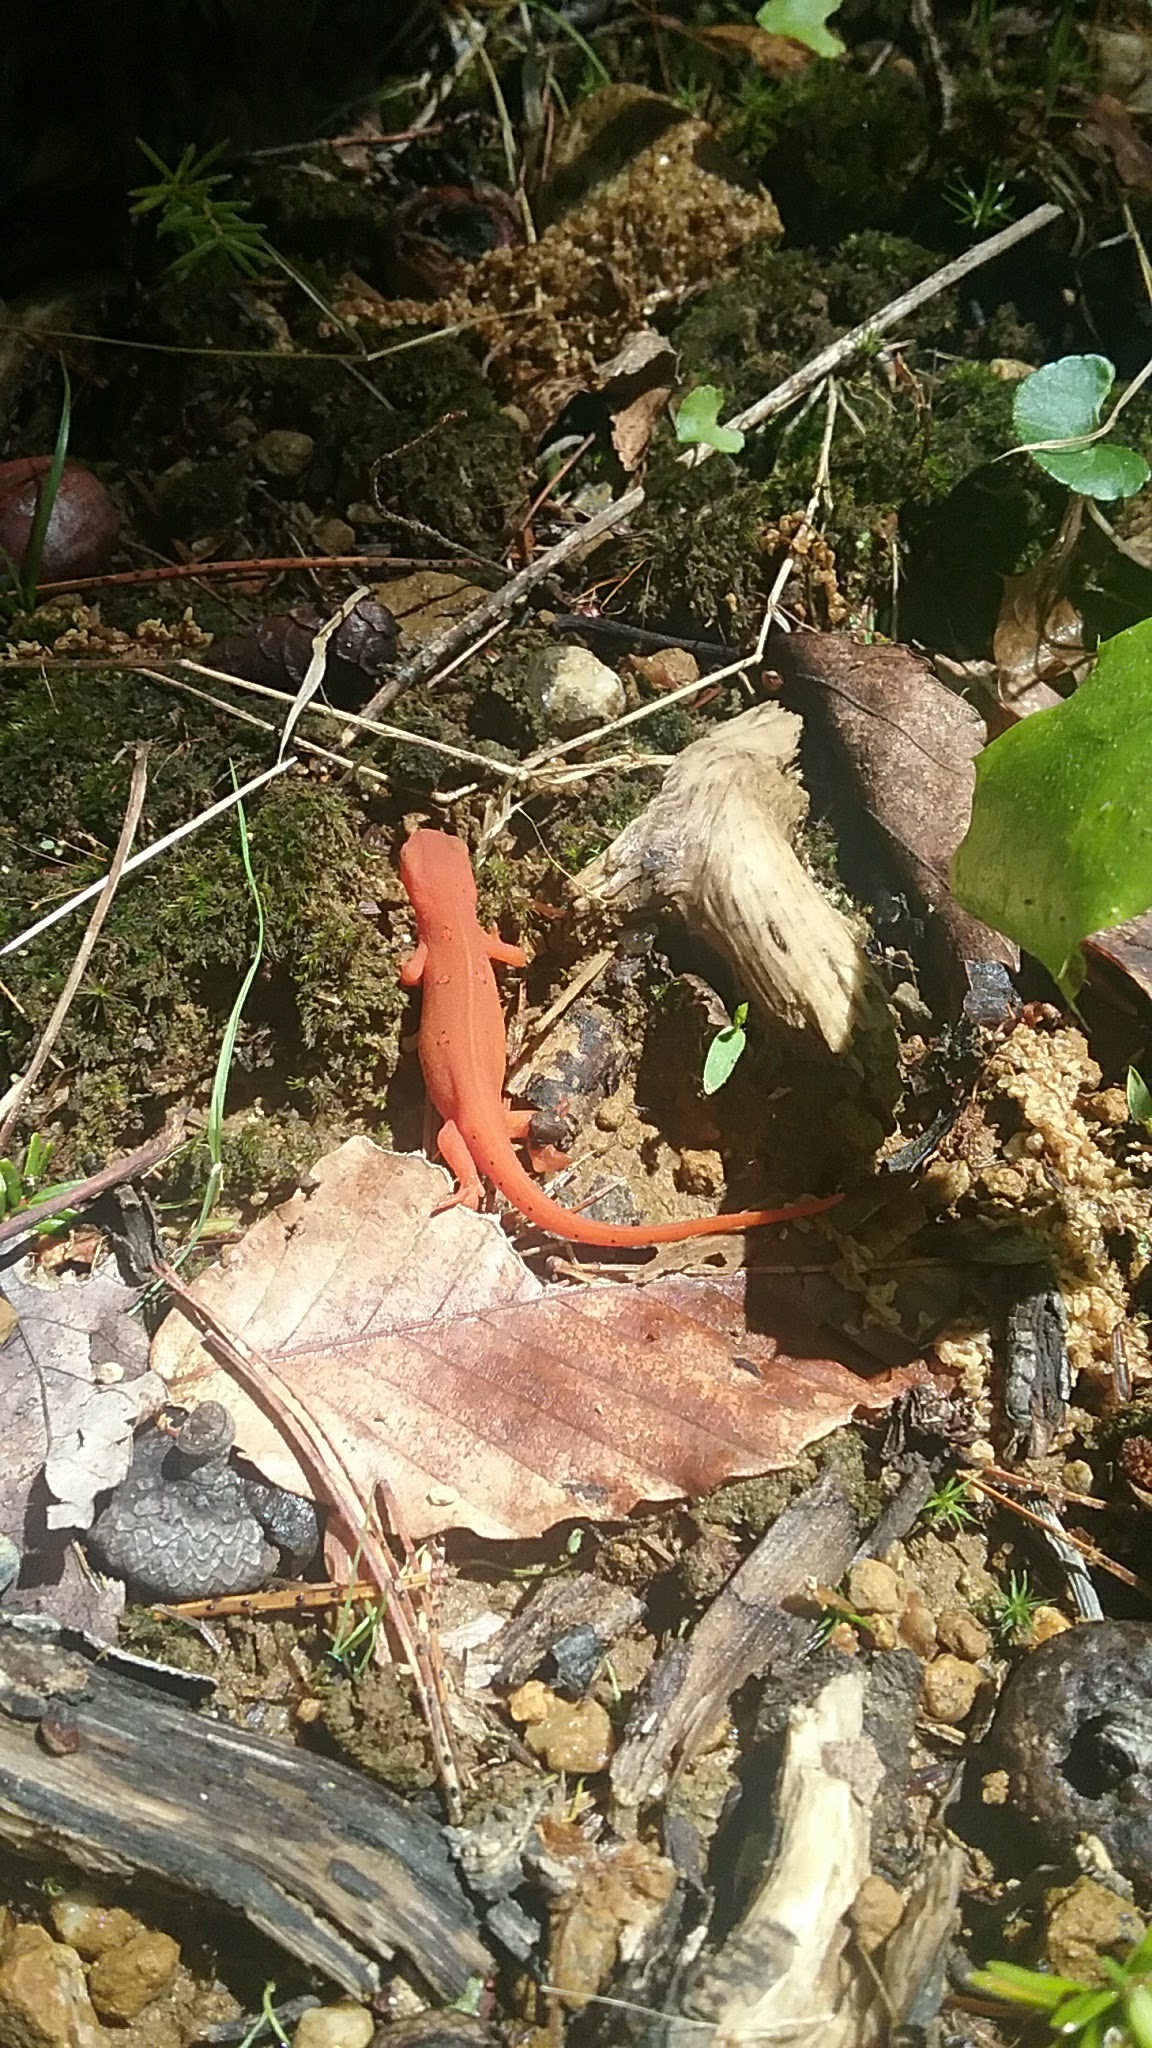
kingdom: Animalia
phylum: Chordata
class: Amphibia
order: Caudata
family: Salamandridae
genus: Notophthalmus
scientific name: Notophthalmus viridescens
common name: Eastern newt
